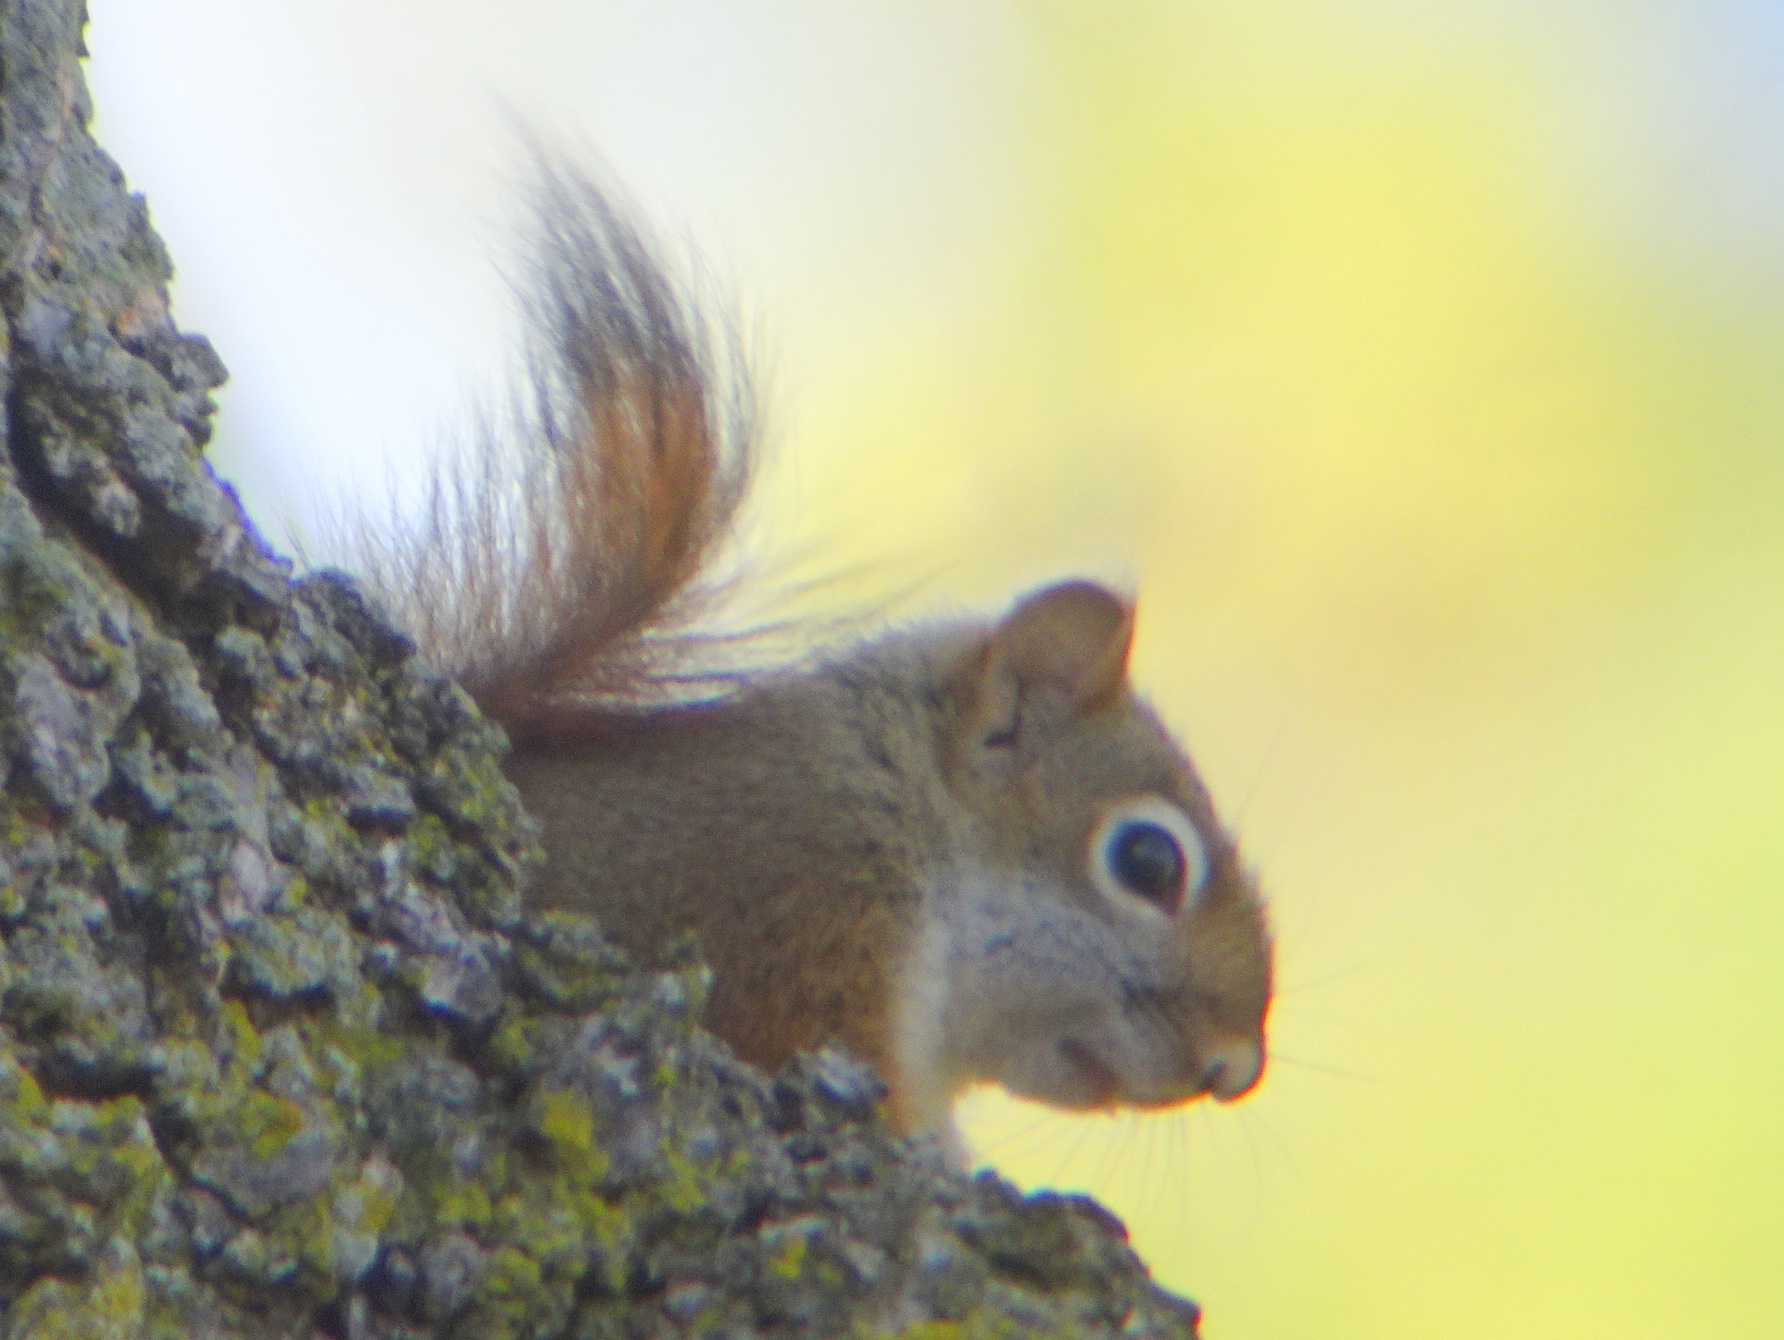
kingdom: Animalia
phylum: Chordata
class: Mammalia
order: Rodentia
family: Sciuridae
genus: Tamiasciurus
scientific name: Tamiasciurus hudsonicus
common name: Red squirrel
